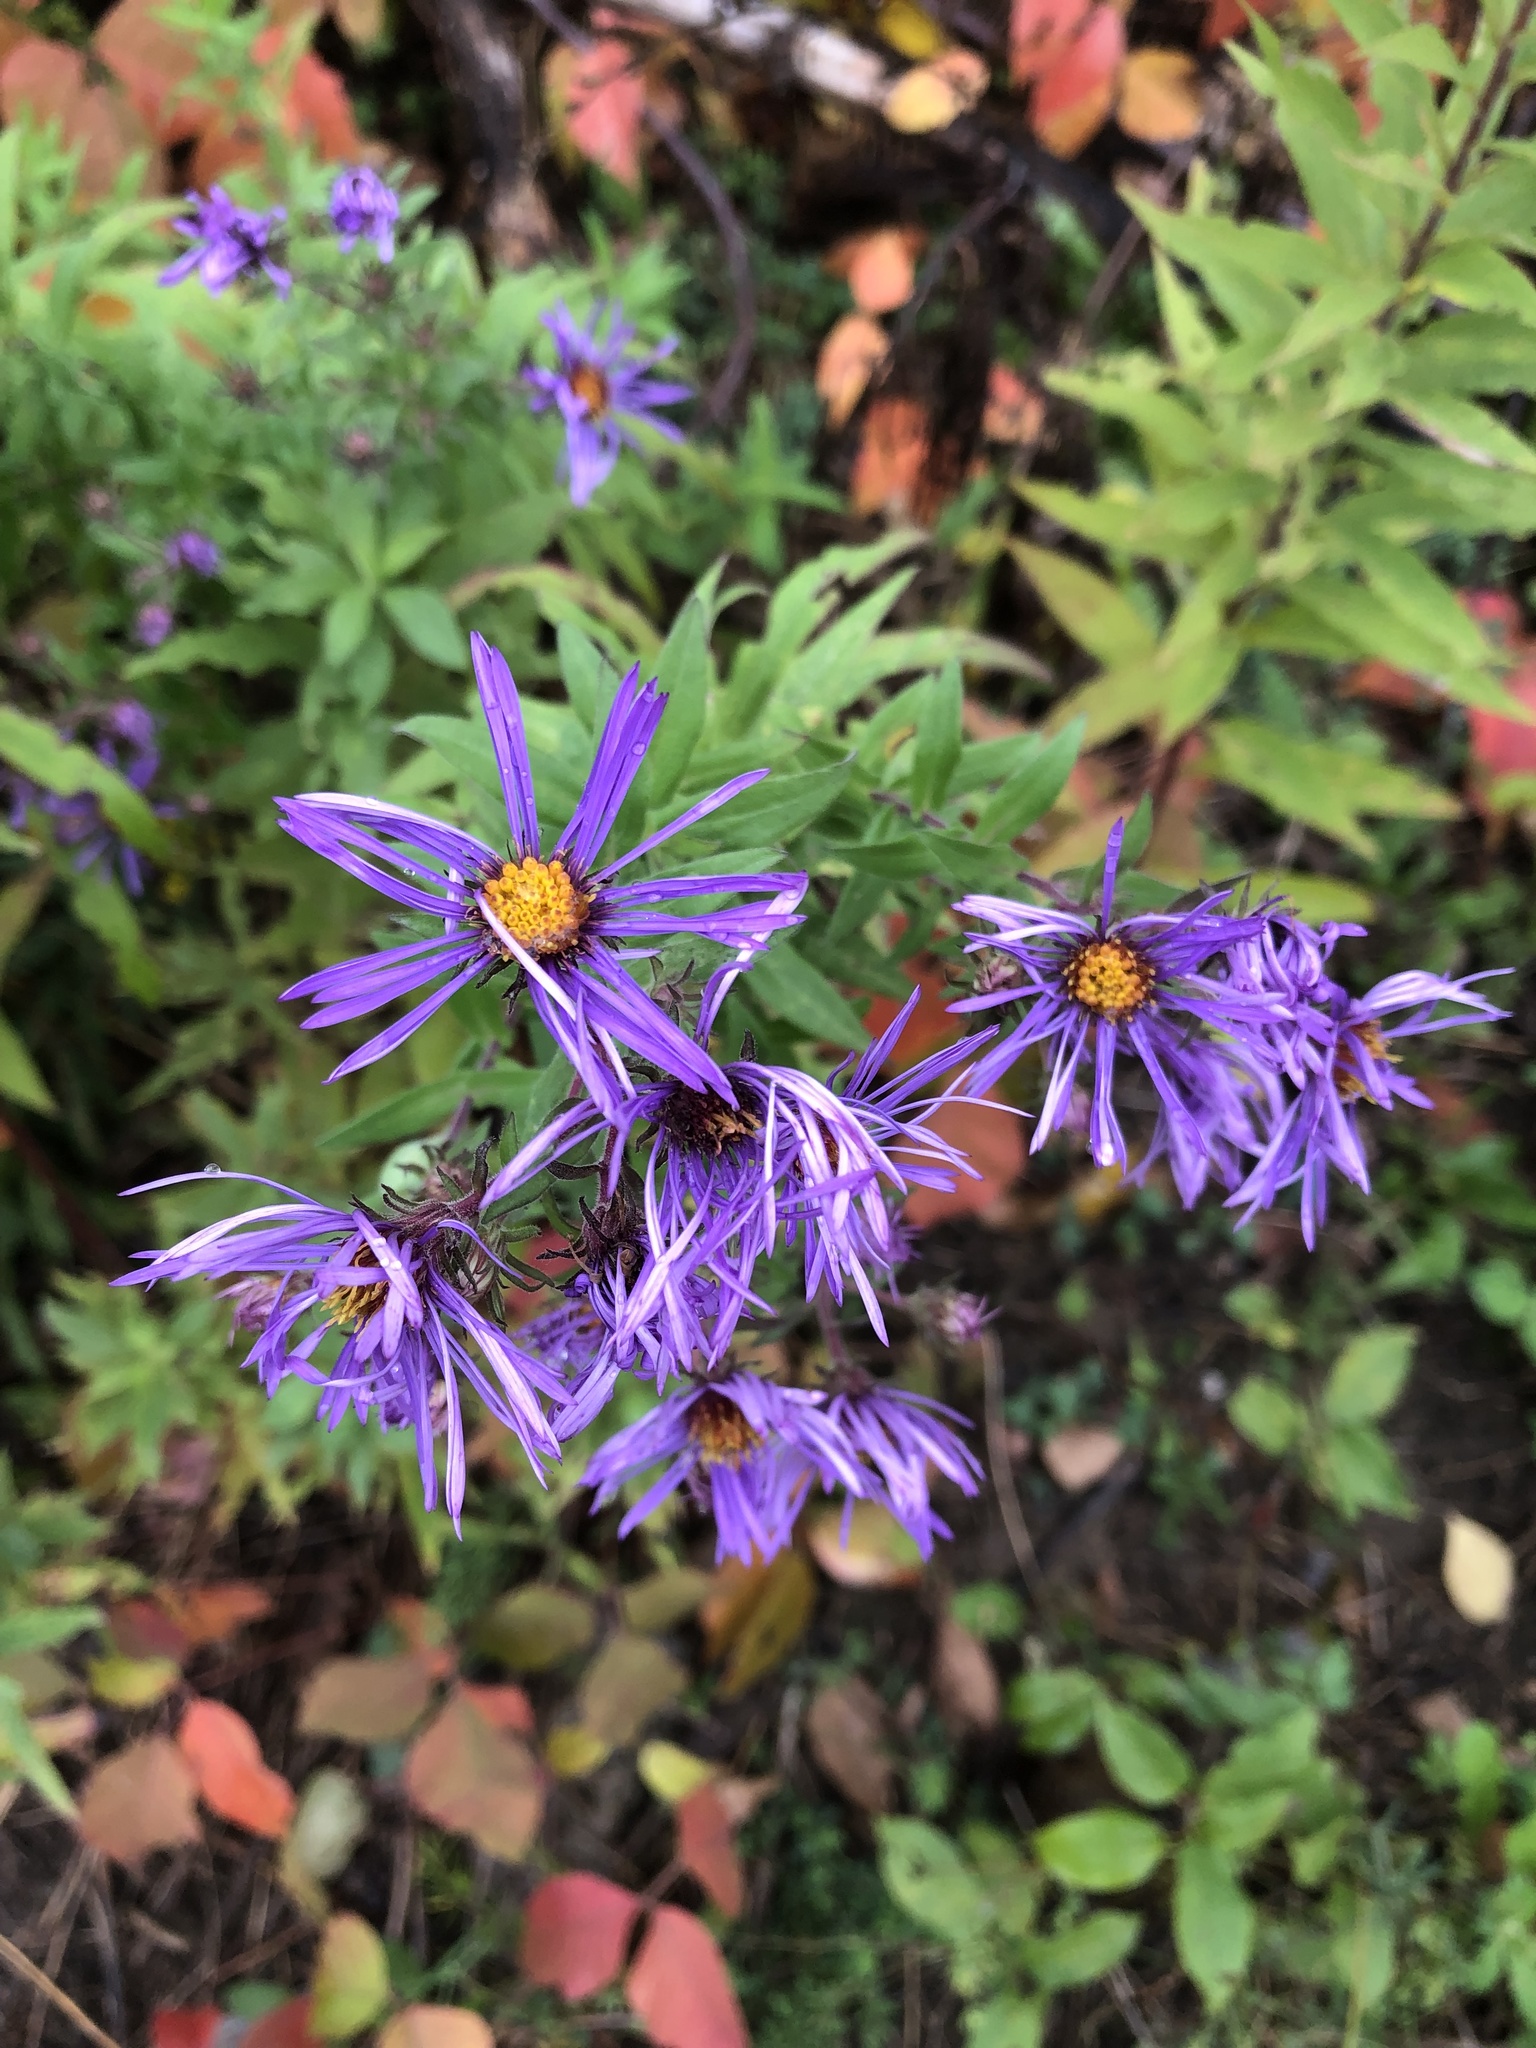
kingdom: Plantae
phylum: Tracheophyta
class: Magnoliopsida
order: Asterales
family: Asteraceae
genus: Symphyotrichum
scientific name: Symphyotrichum novae-angliae
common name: Michaelmas daisy
